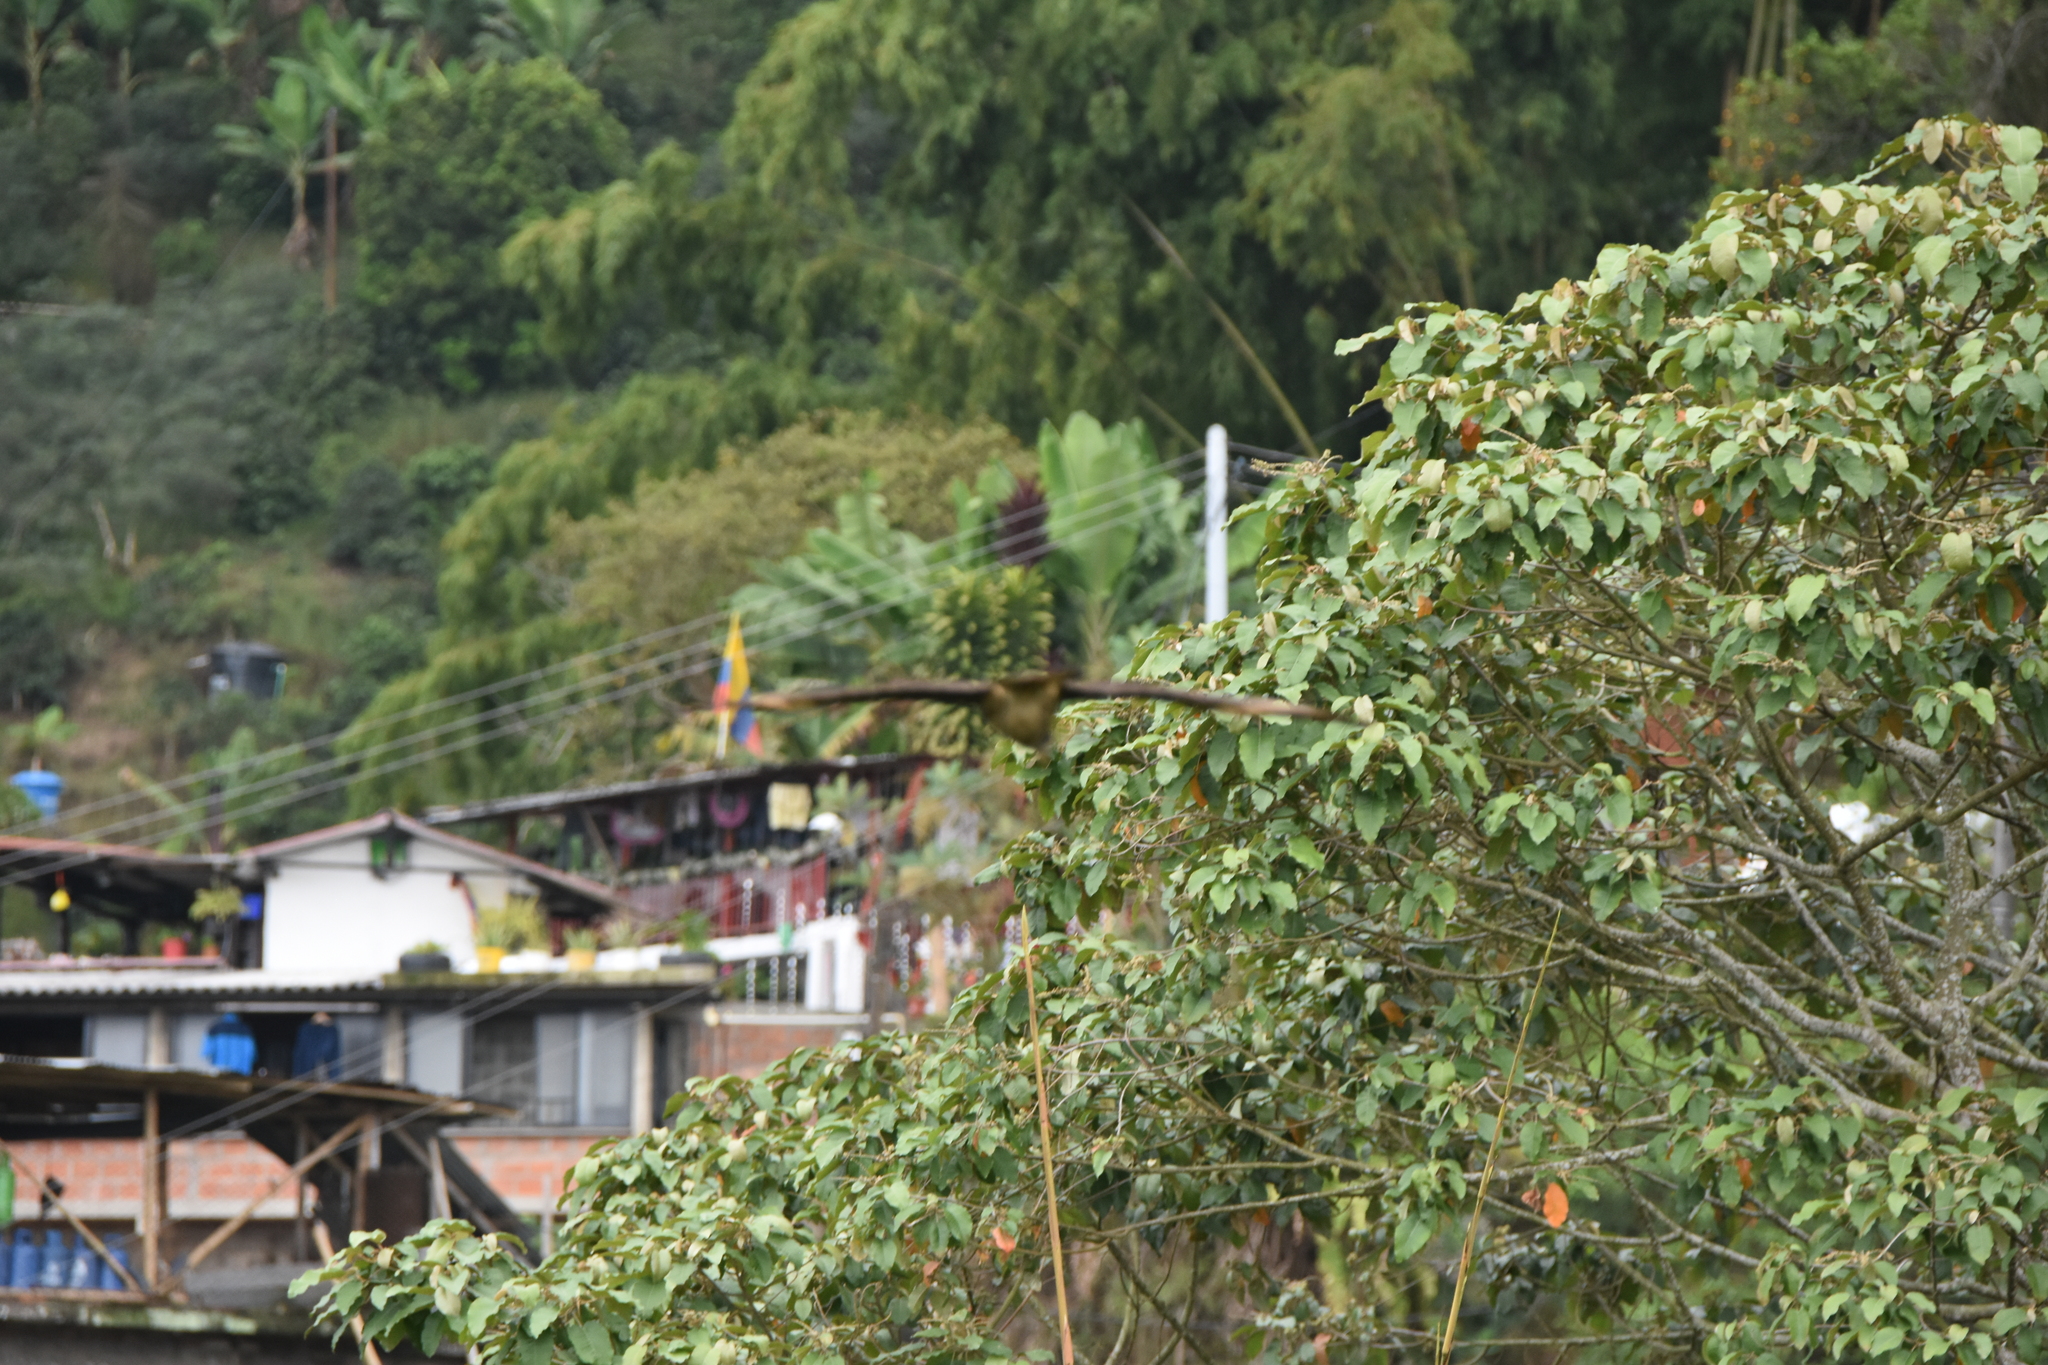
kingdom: Animalia
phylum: Chordata
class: Aves
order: Falconiformes
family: Falconidae
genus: Daptrius
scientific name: Daptrius
